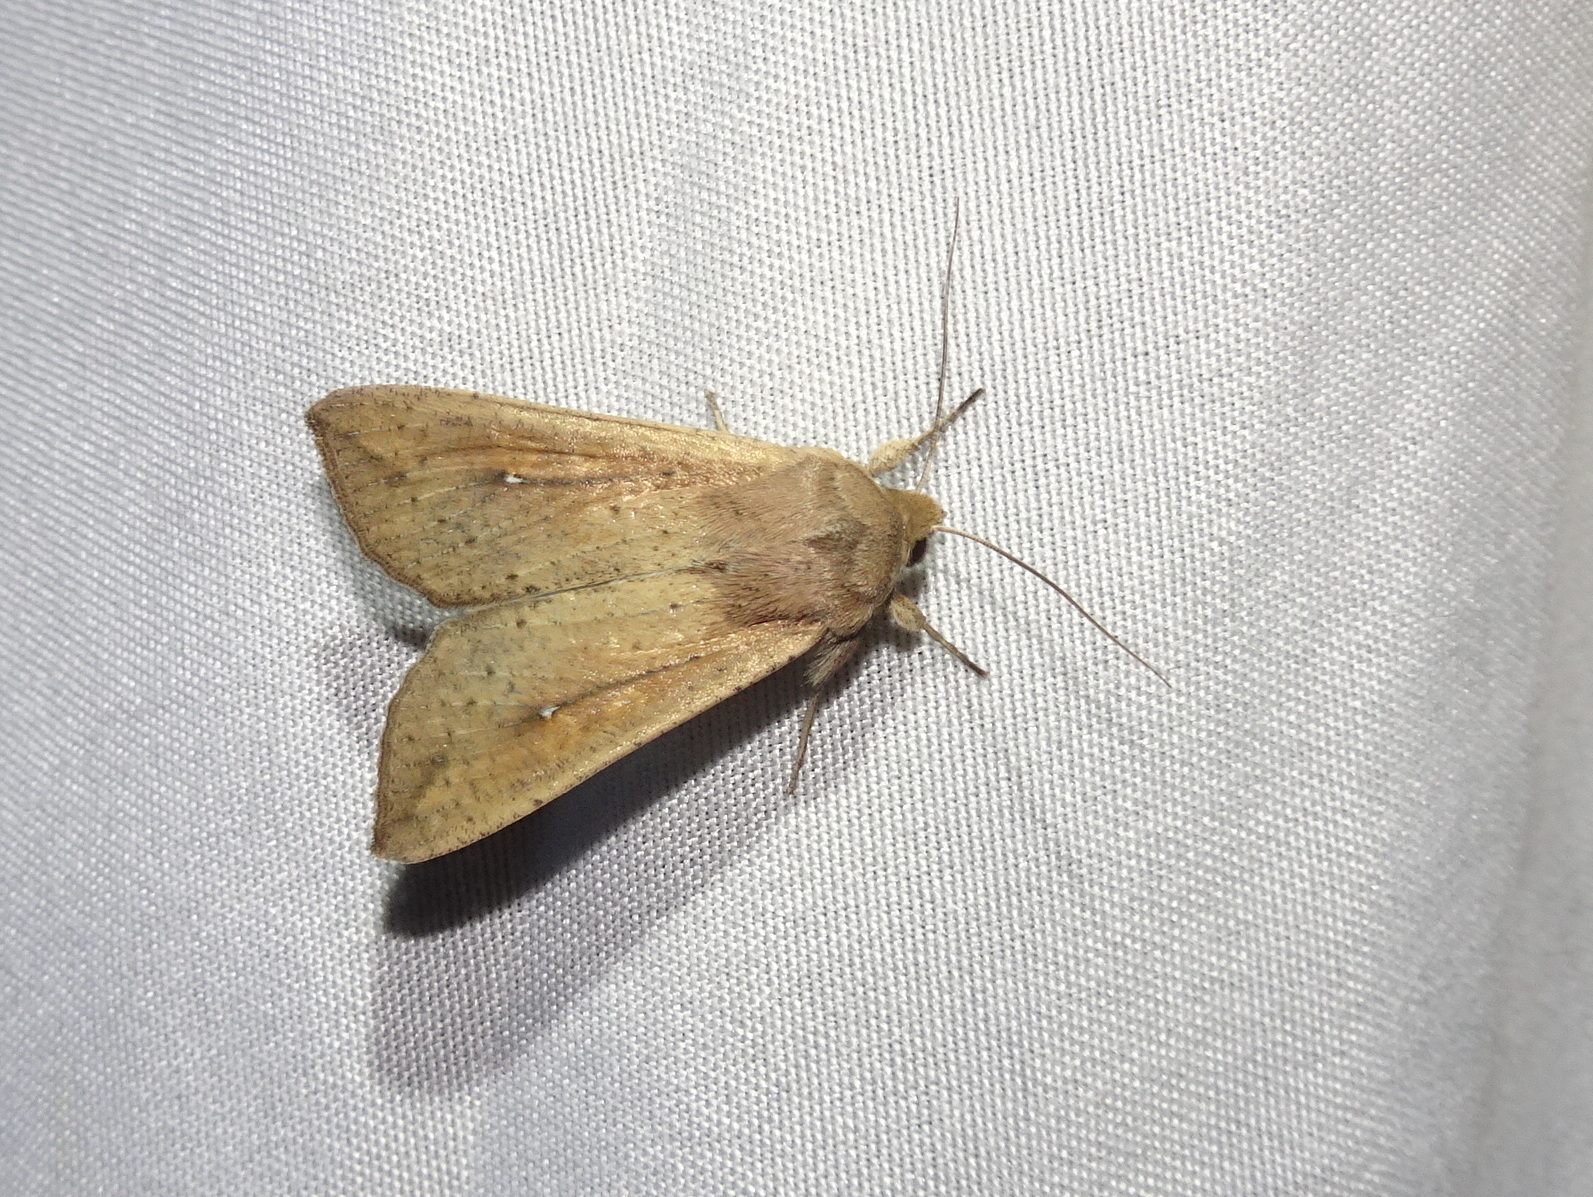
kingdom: Animalia
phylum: Arthropoda
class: Insecta
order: Lepidoptera
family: Noctuidae
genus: Mythimna
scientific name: Mythimna unipuncta
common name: White-speck
